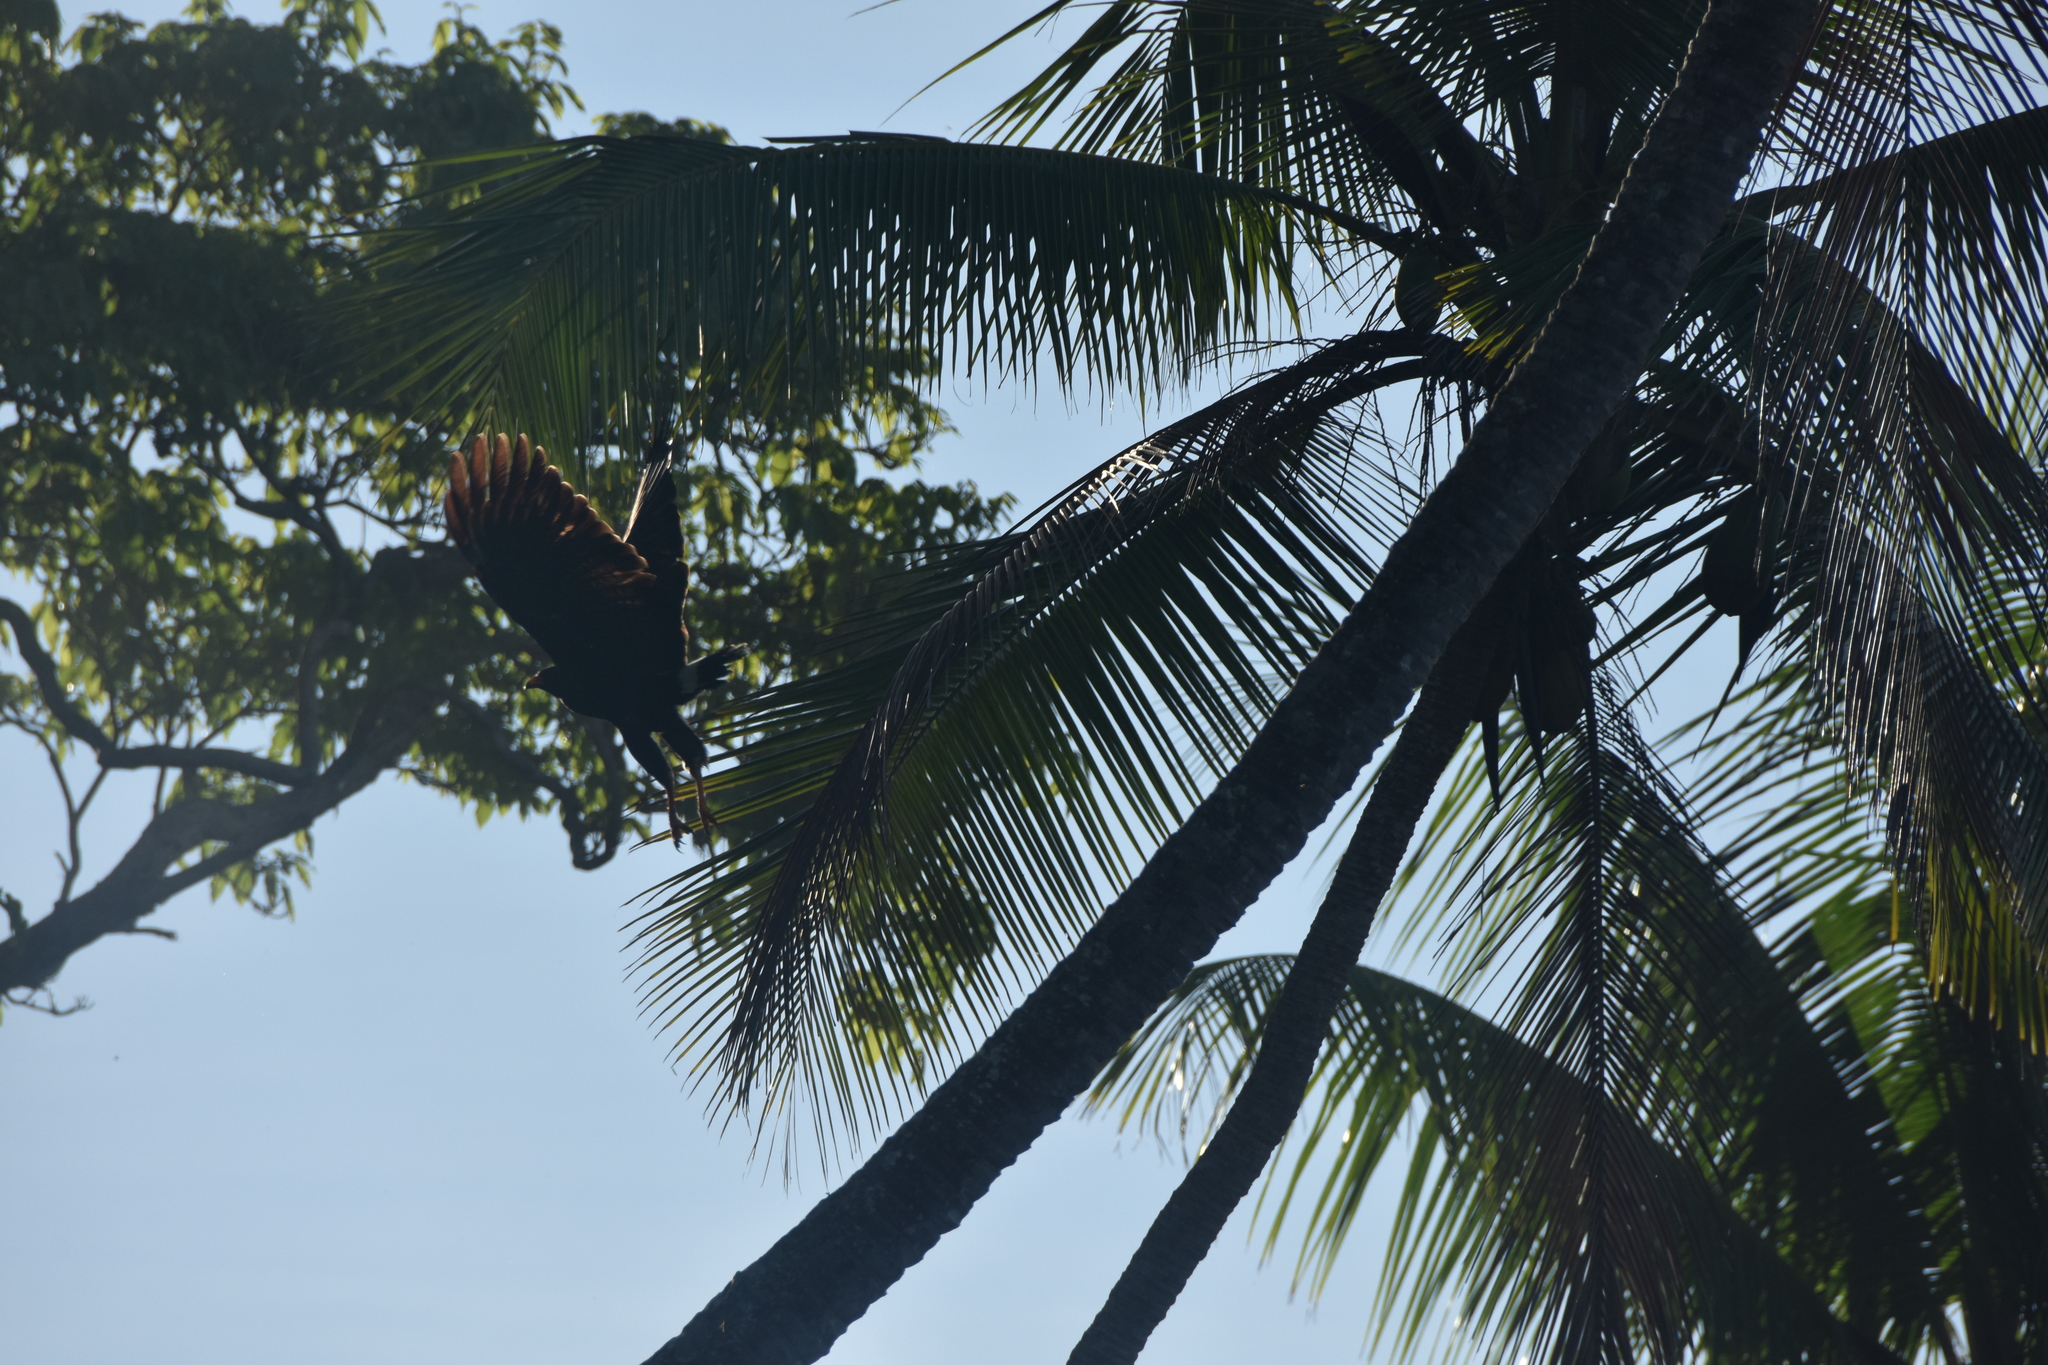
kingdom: Animalia
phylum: Chordata
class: Aves
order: Accipitriformes
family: Accipitridae
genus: Buteogallus
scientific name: Buteogallus anthracinus
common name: Common black hawk
